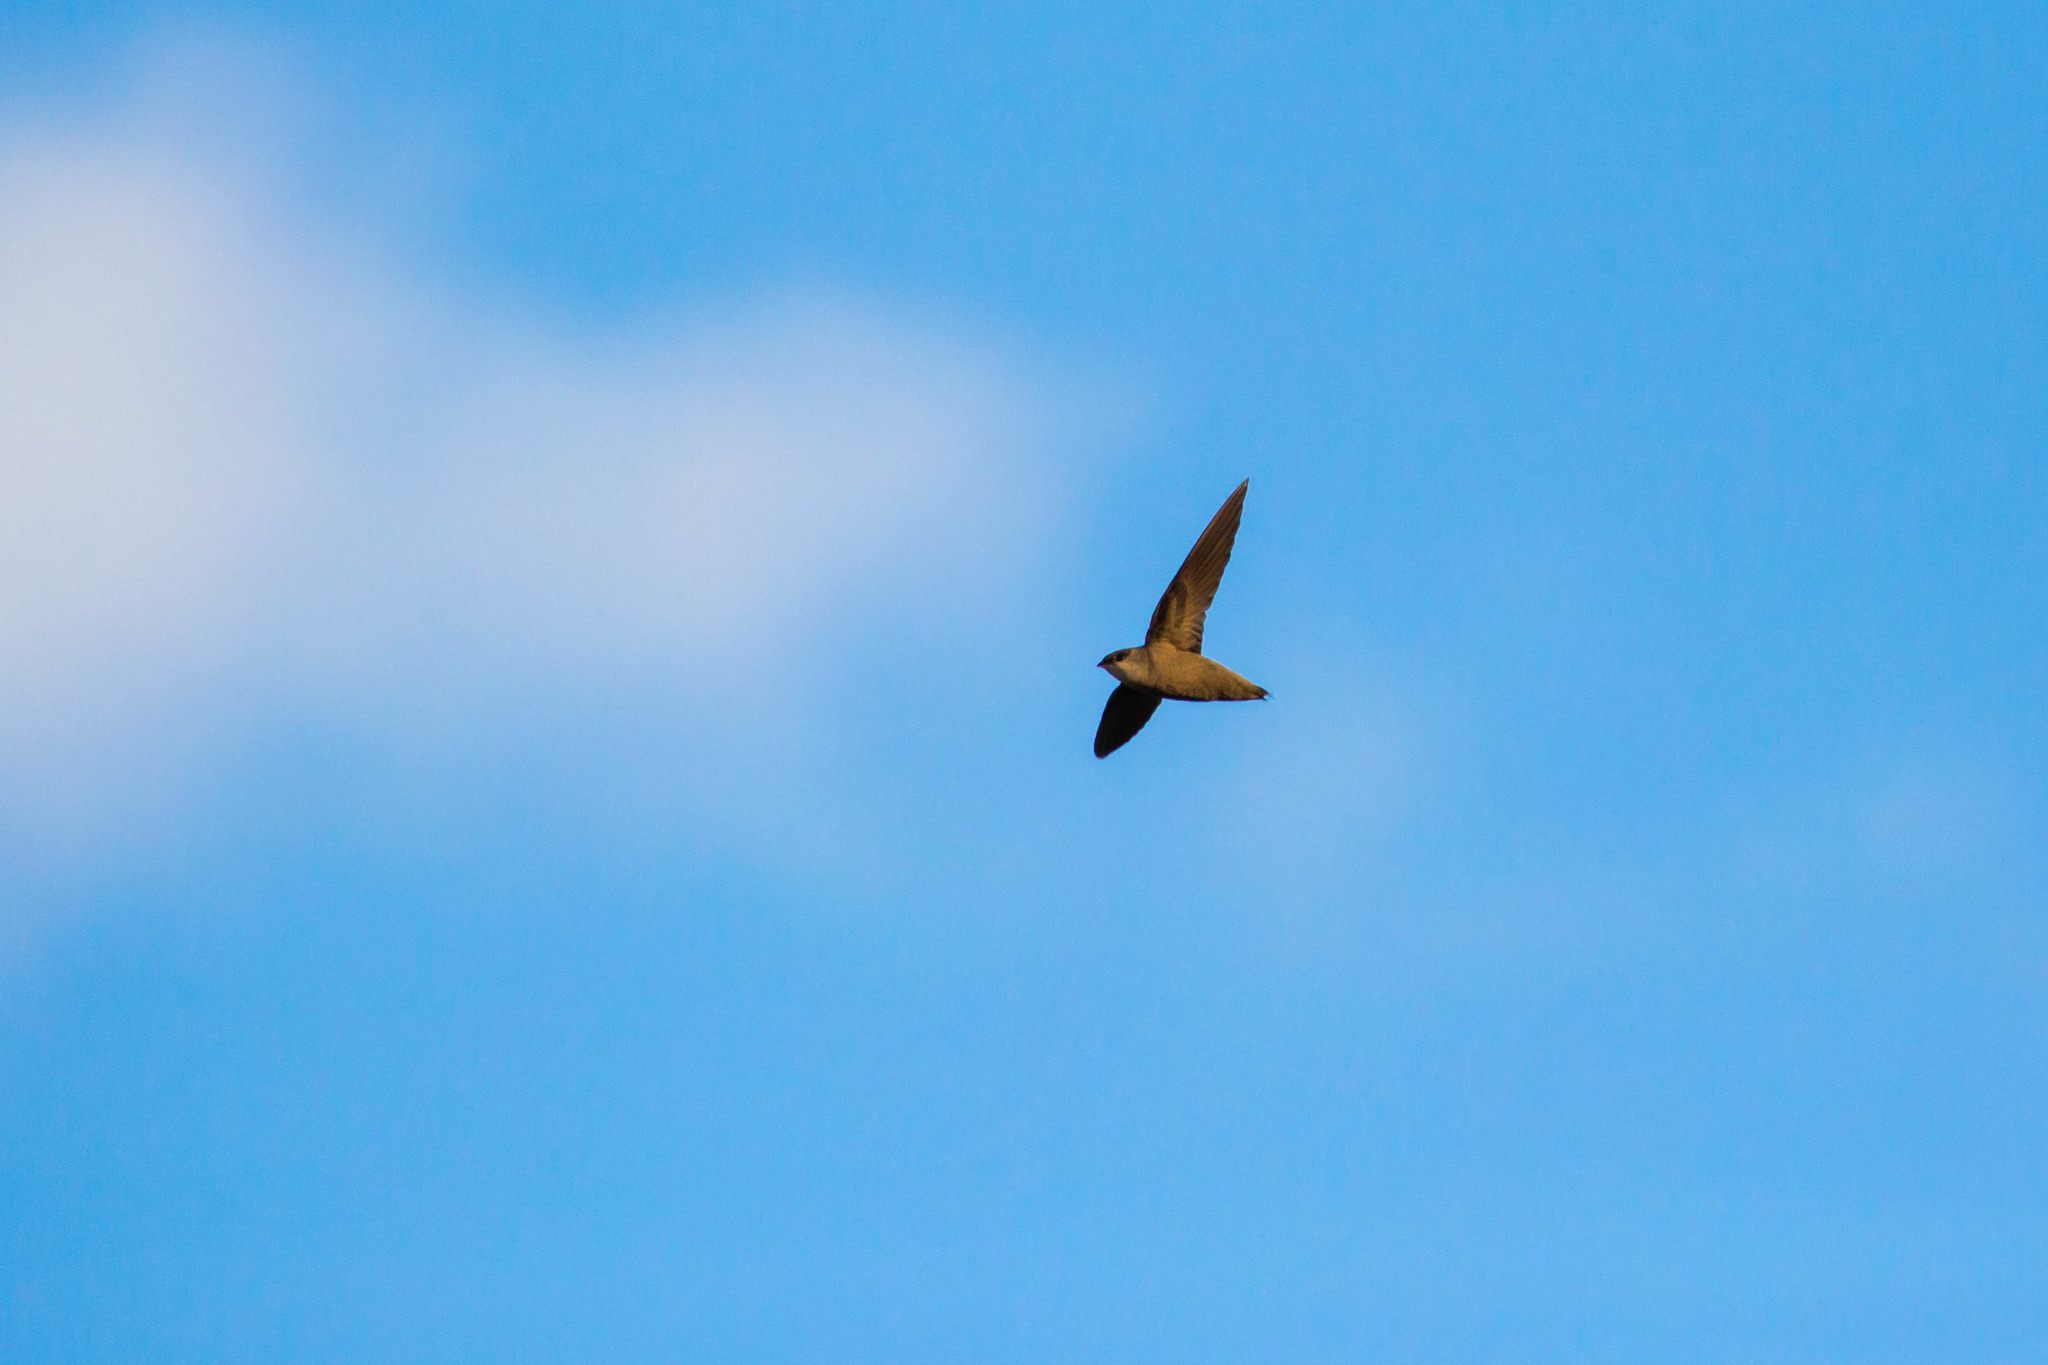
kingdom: Animalia
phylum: Chordata
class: Aves
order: Apodiformes
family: Apodidae
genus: Chaetura
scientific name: Chaetura pelagica
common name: Chimney swift
